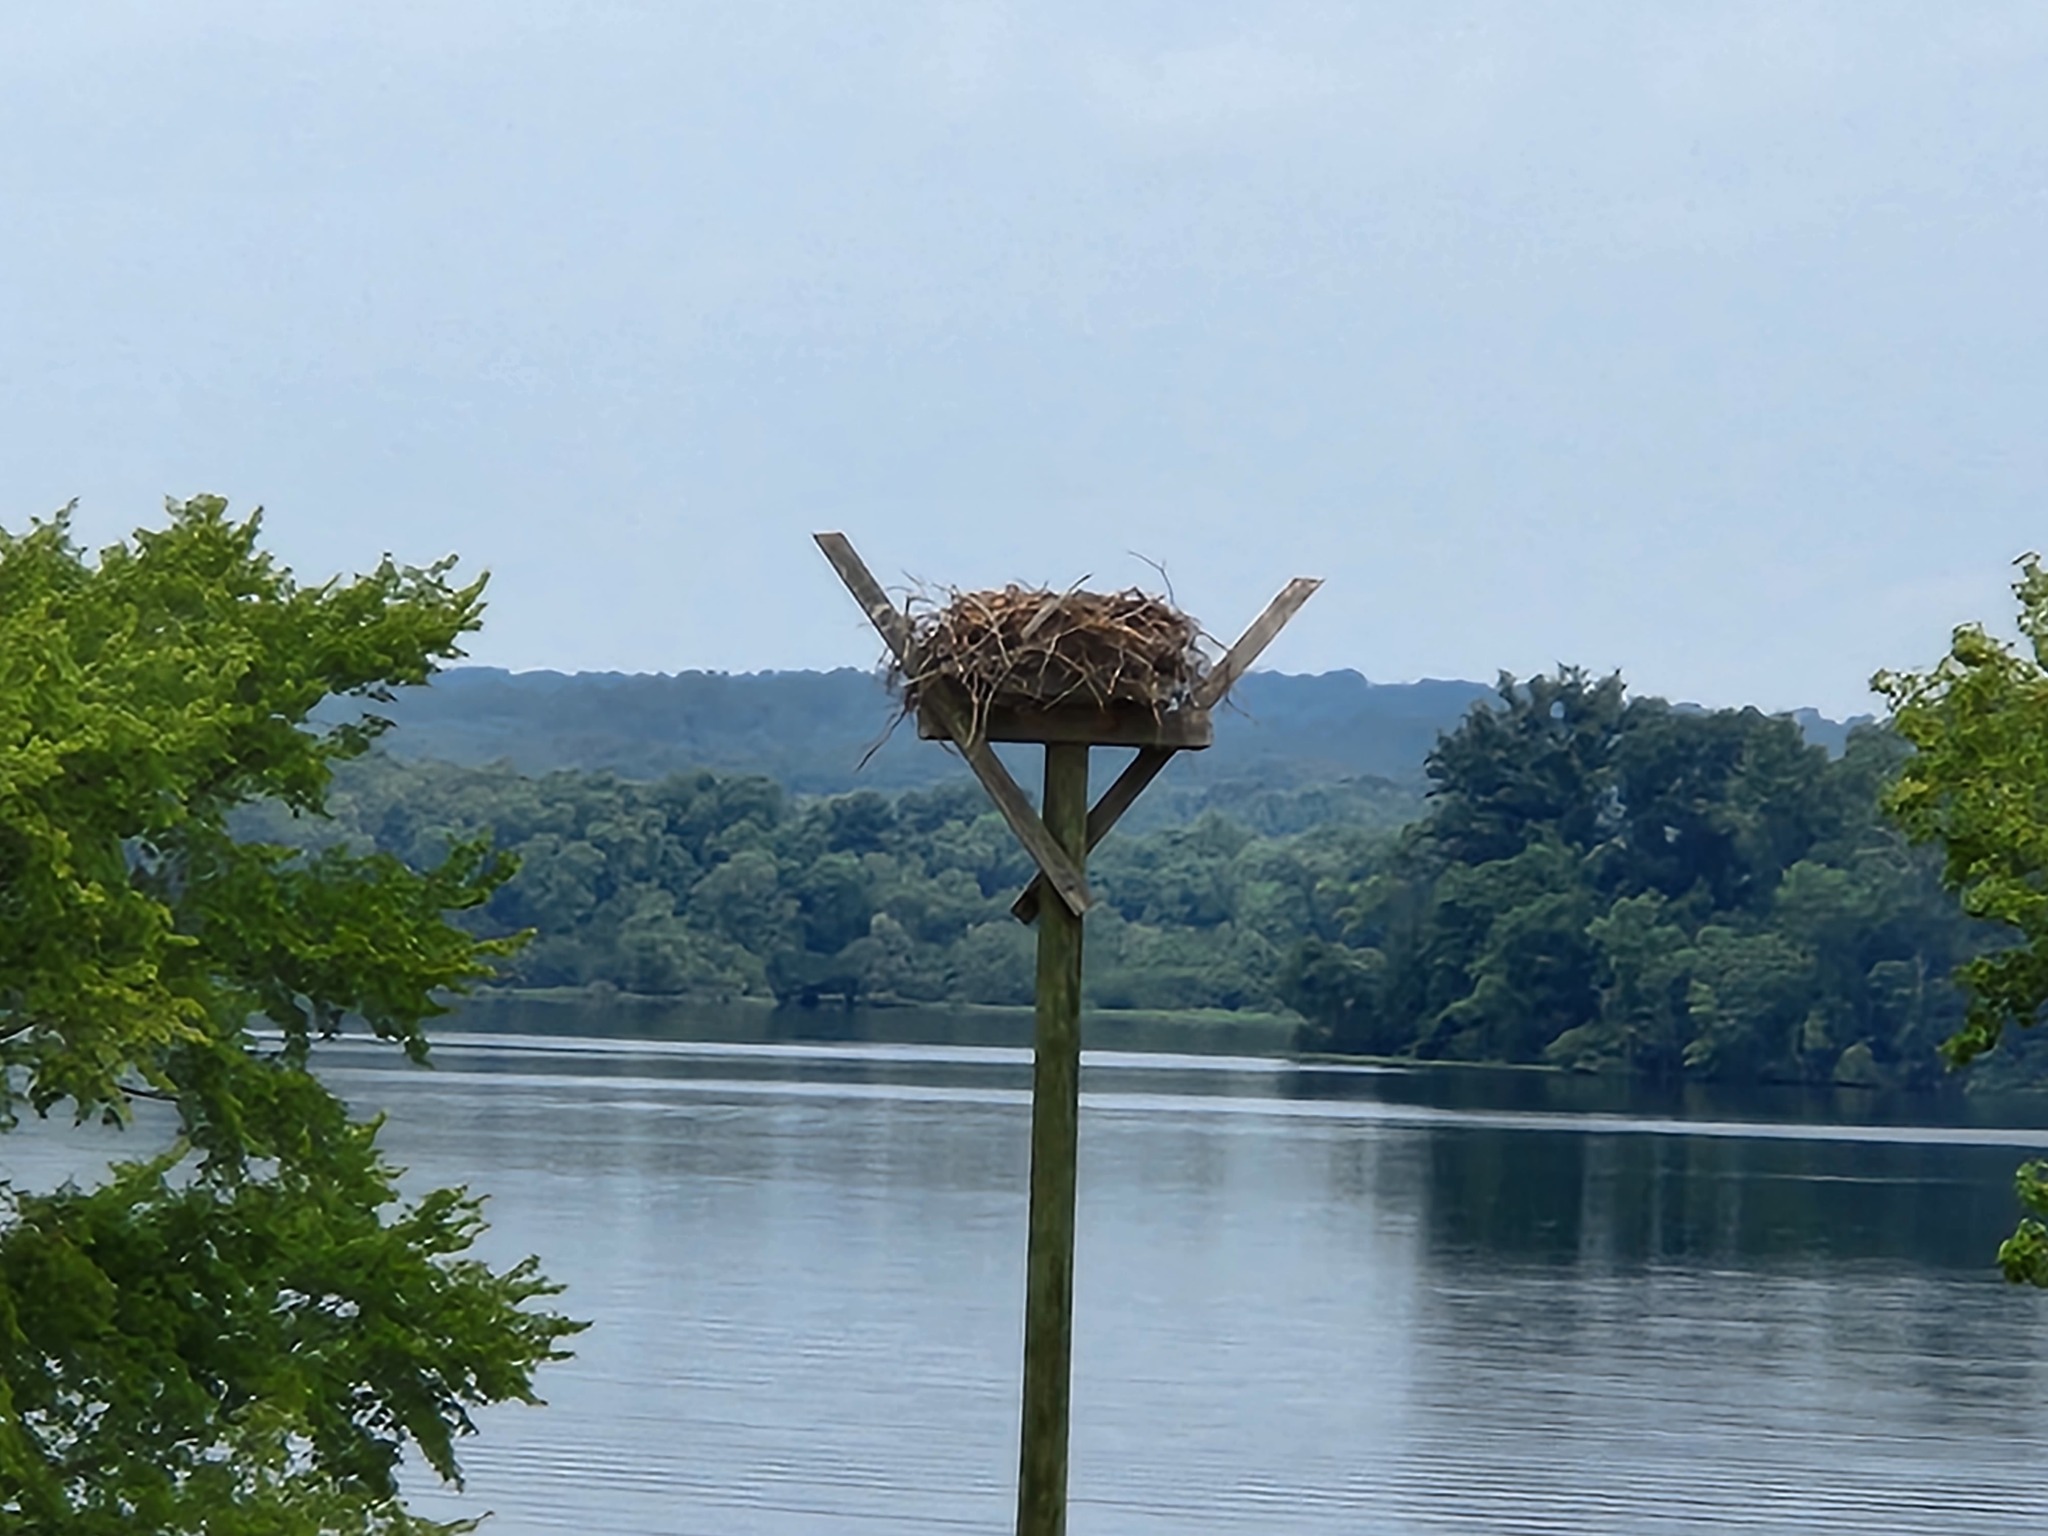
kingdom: Animalia
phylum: Chordata
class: Aves
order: Accipitriformes
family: Pandionidae
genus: Pandion
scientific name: Pandion haliaetus
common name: Osprey
